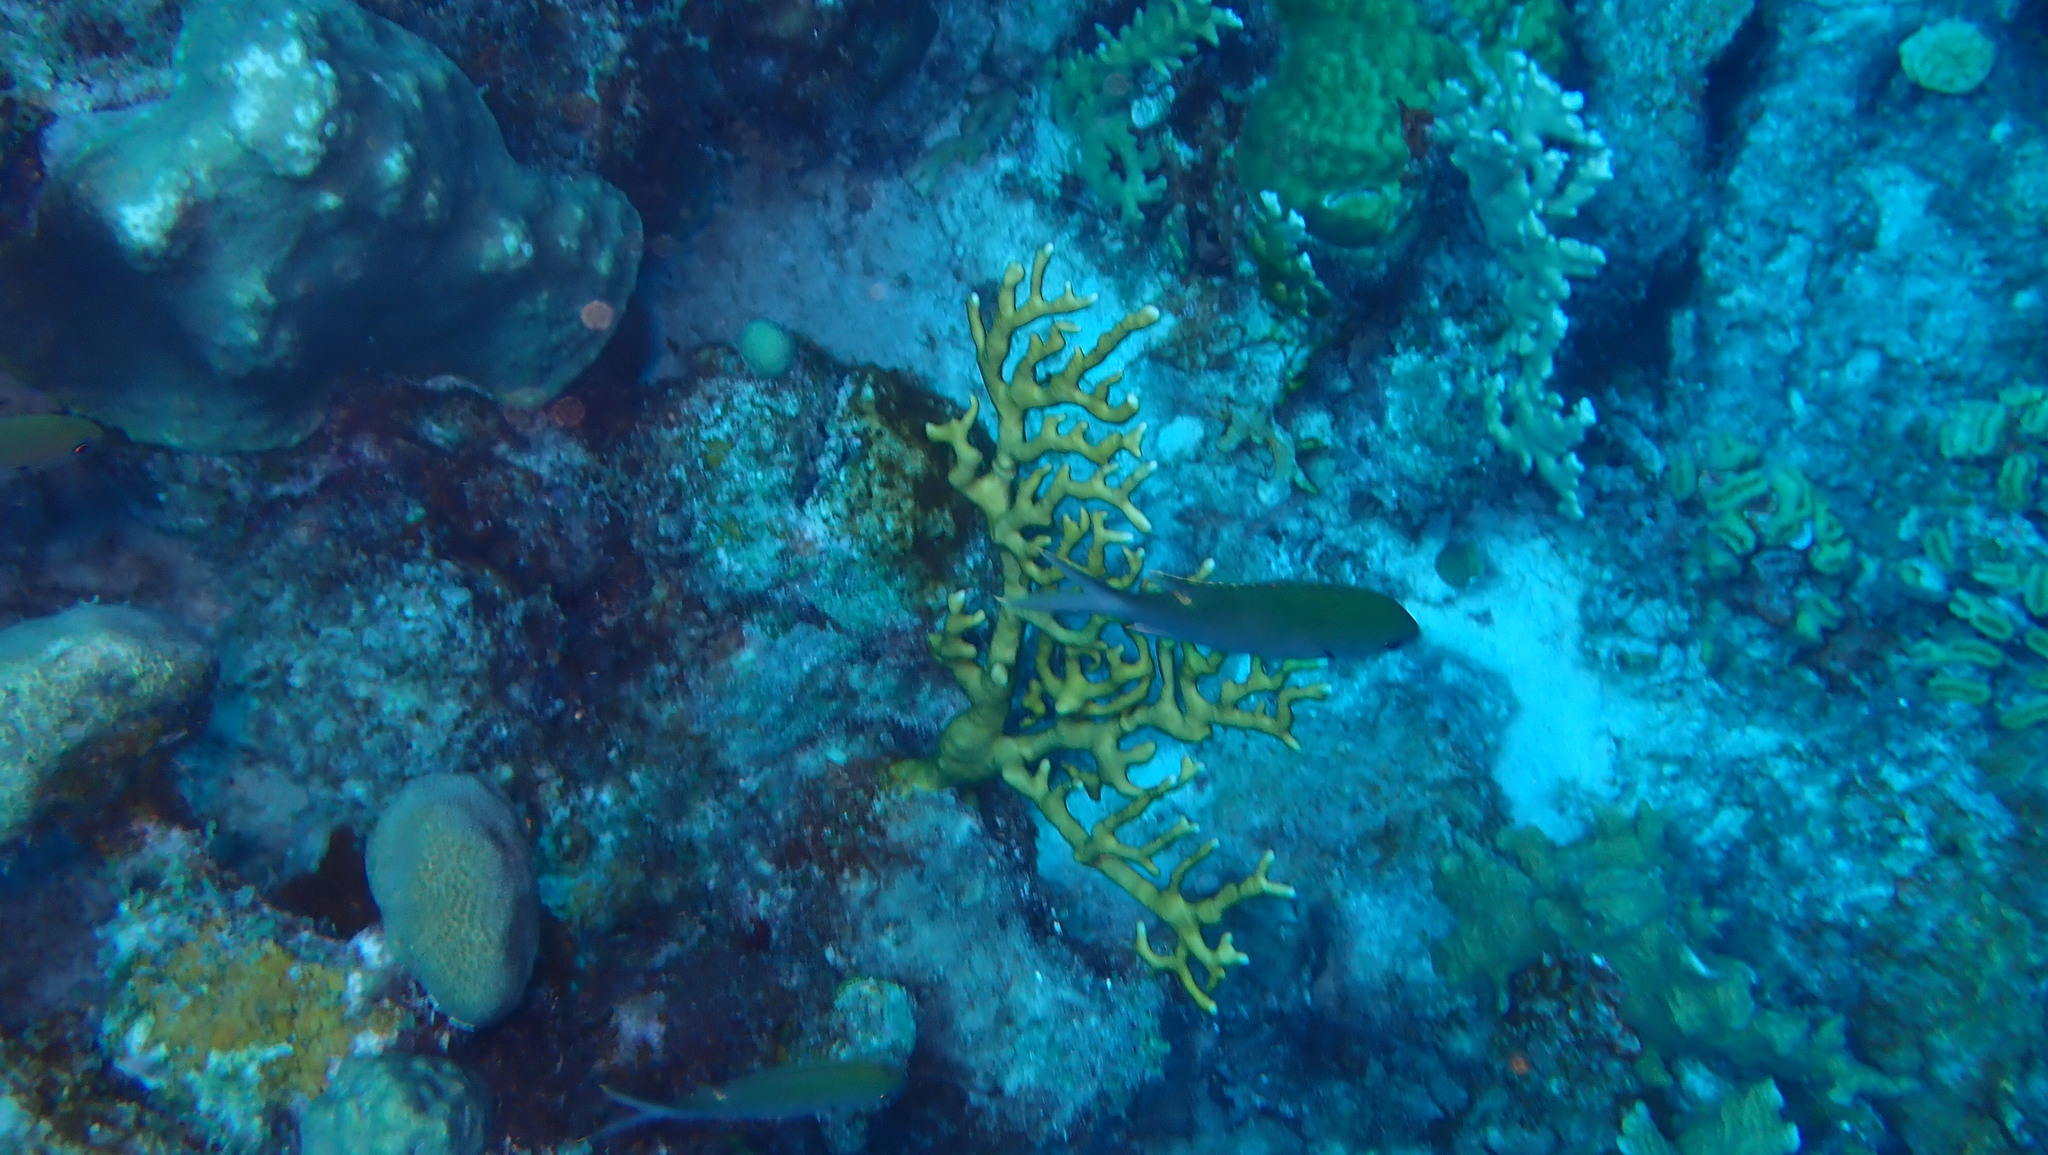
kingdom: Animalia
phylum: Cnidaria
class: Hydrozoa
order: Anthoathecata
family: Milleporidae
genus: Millepora
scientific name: Millepora alcicornis
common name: Branching fire coral
